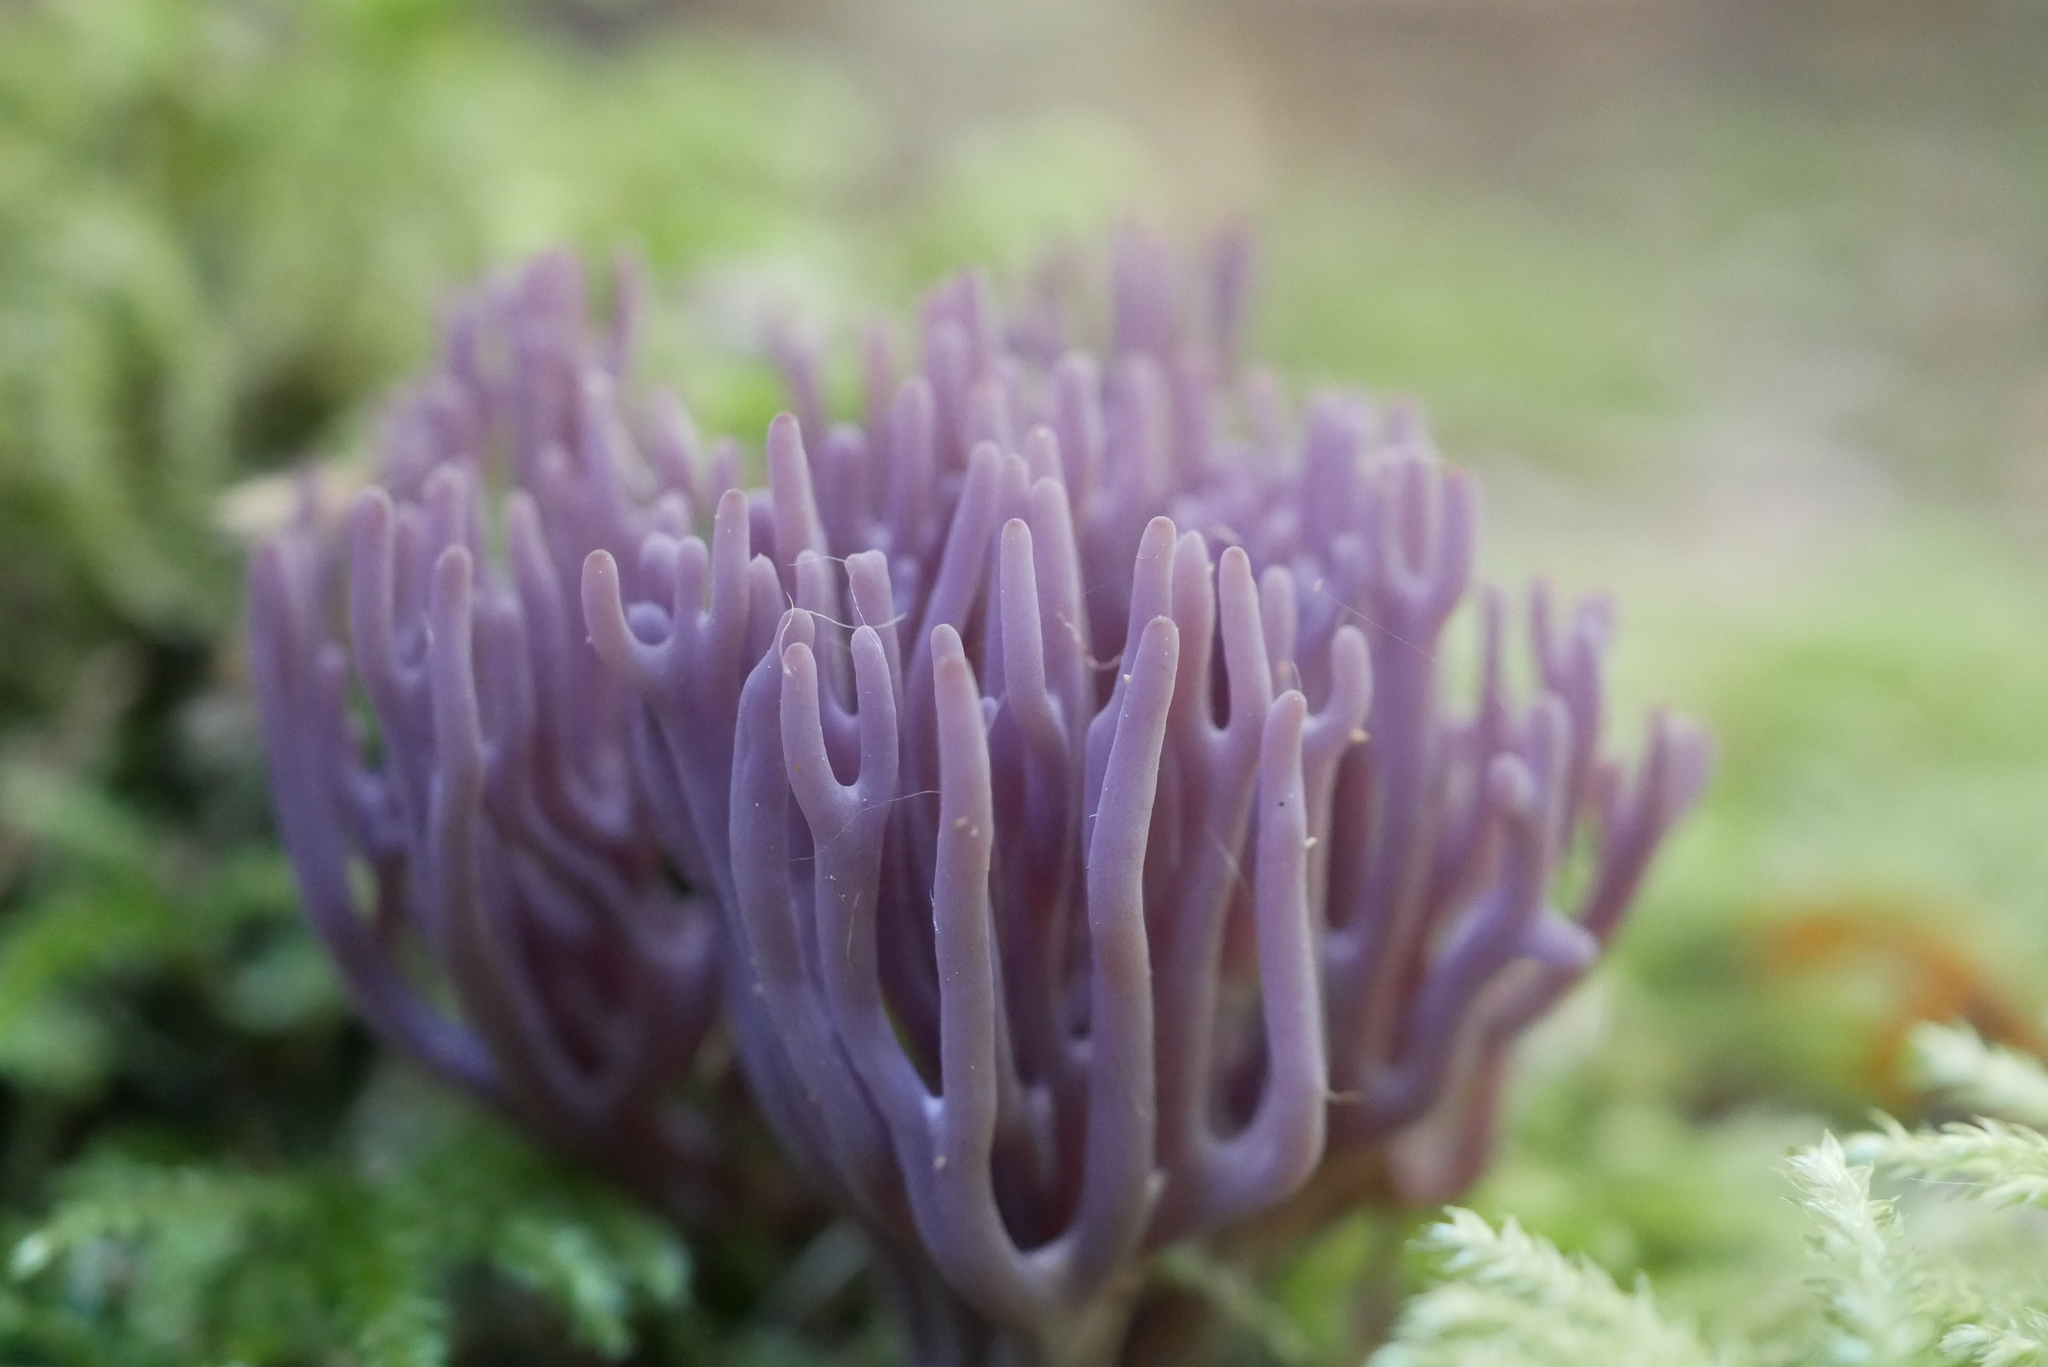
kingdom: Fungi
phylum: Basidiomycota
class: Agaricomycetes
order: Agaricales
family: Clavariaceae
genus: Clavaria
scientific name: Clavaria zollingeri
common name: Violet coral
